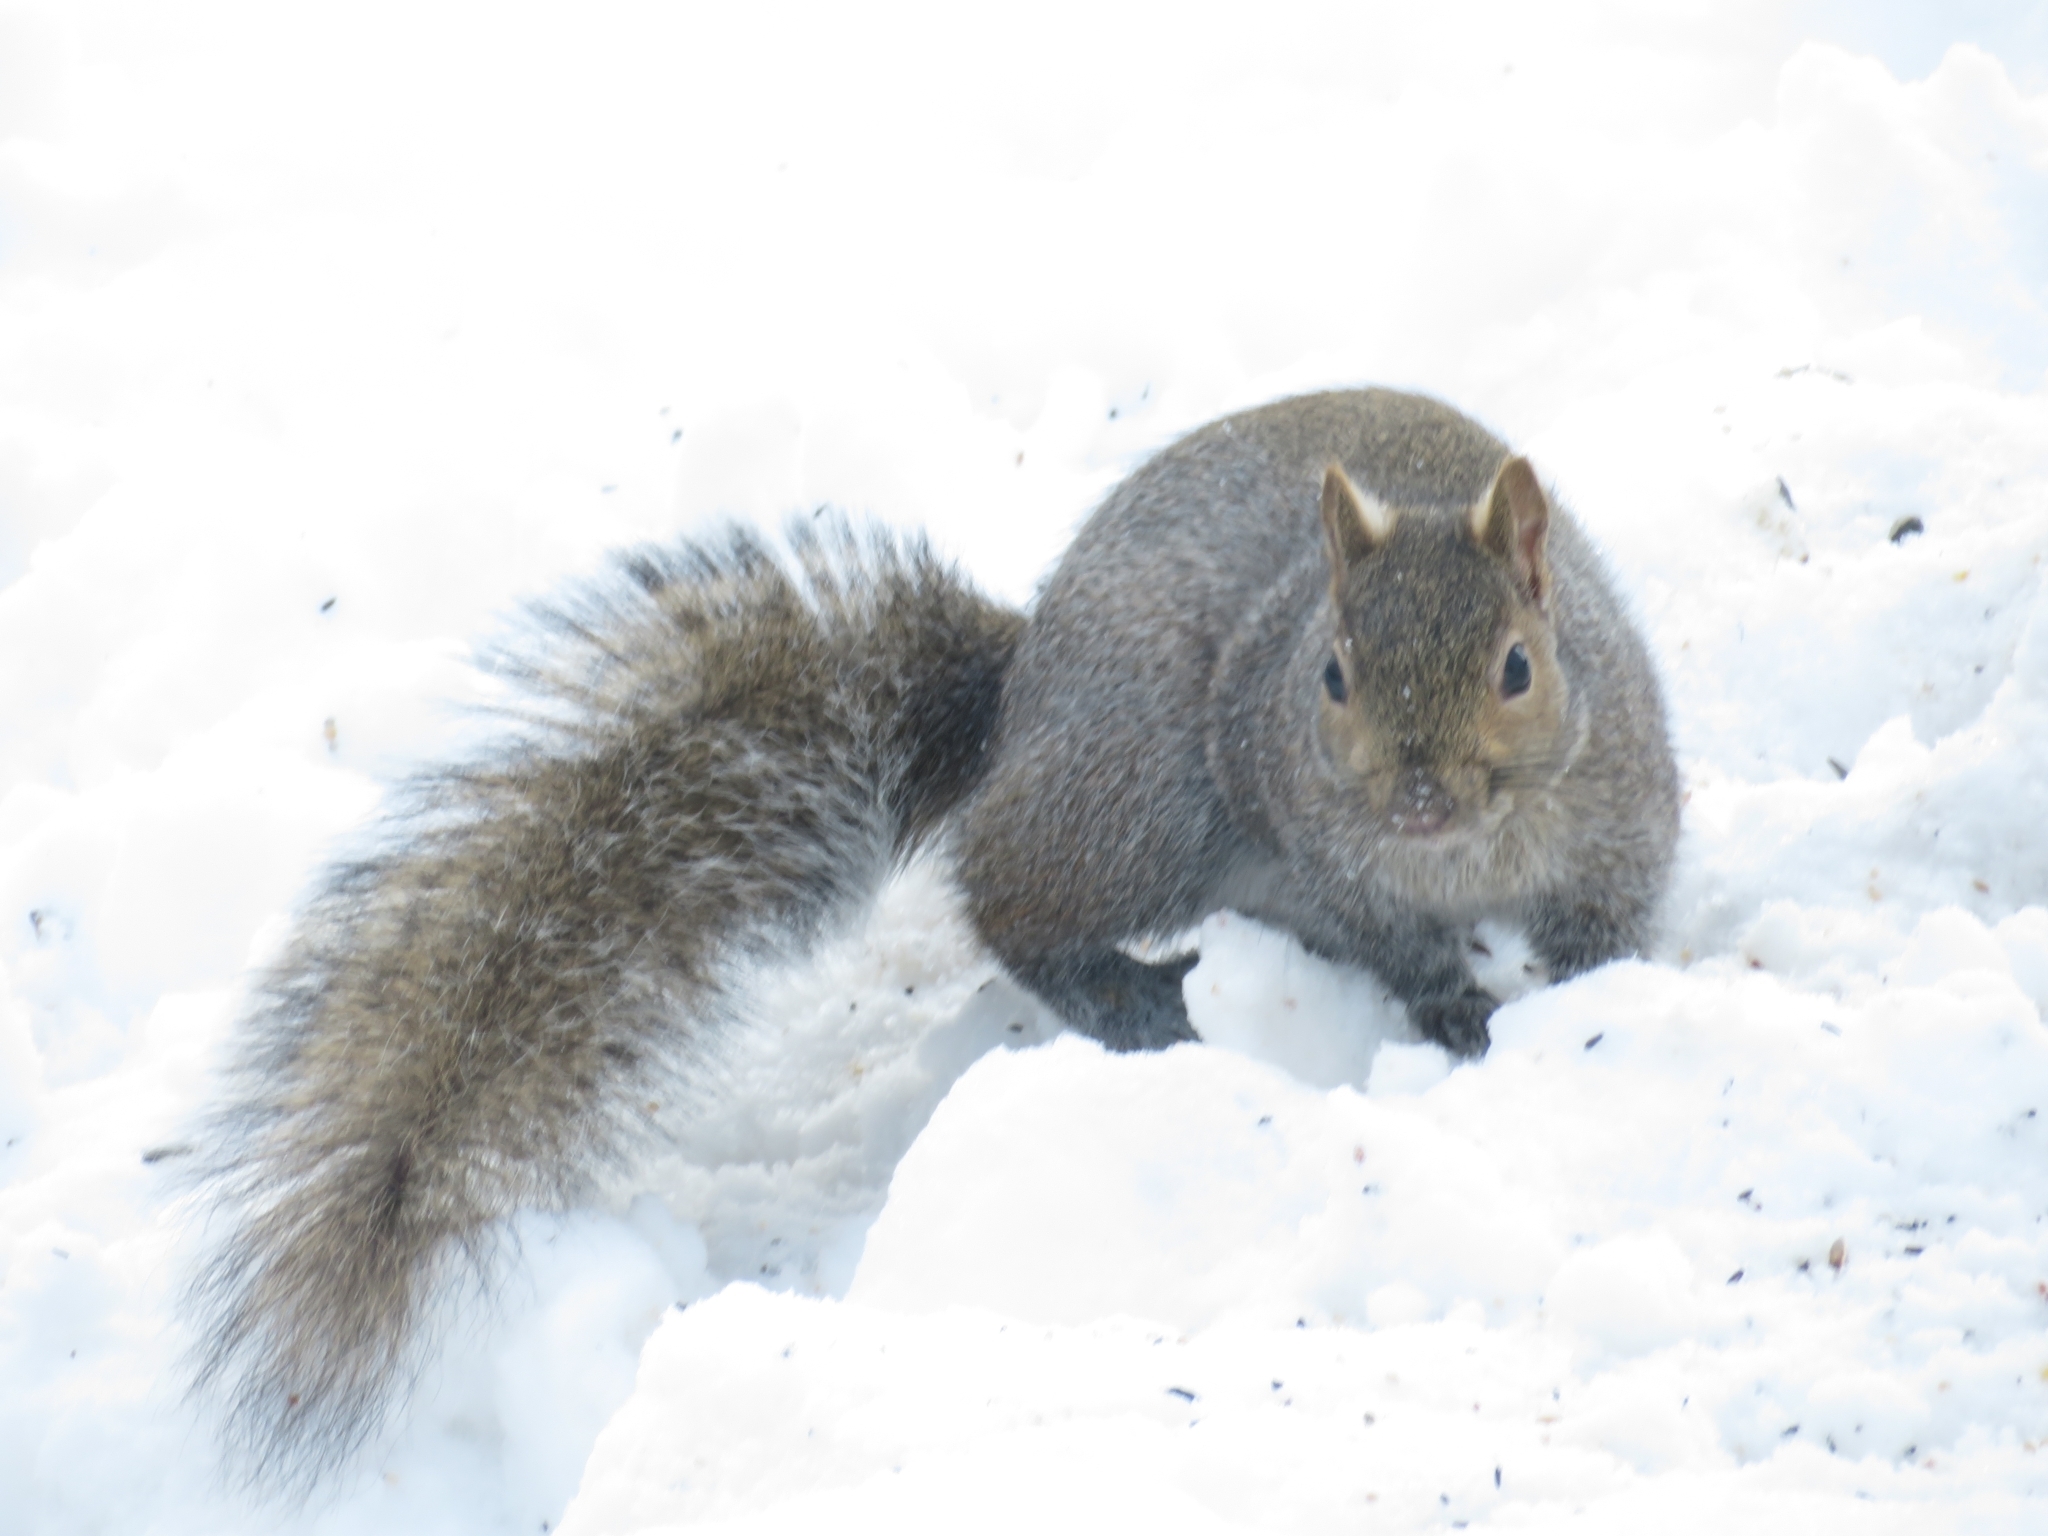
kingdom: Animalia
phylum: Chordata
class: Mammalia
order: Rodentia
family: Sciuridae
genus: Sciurus
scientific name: Sciurus carolinensis
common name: Eastern gray squirrel
